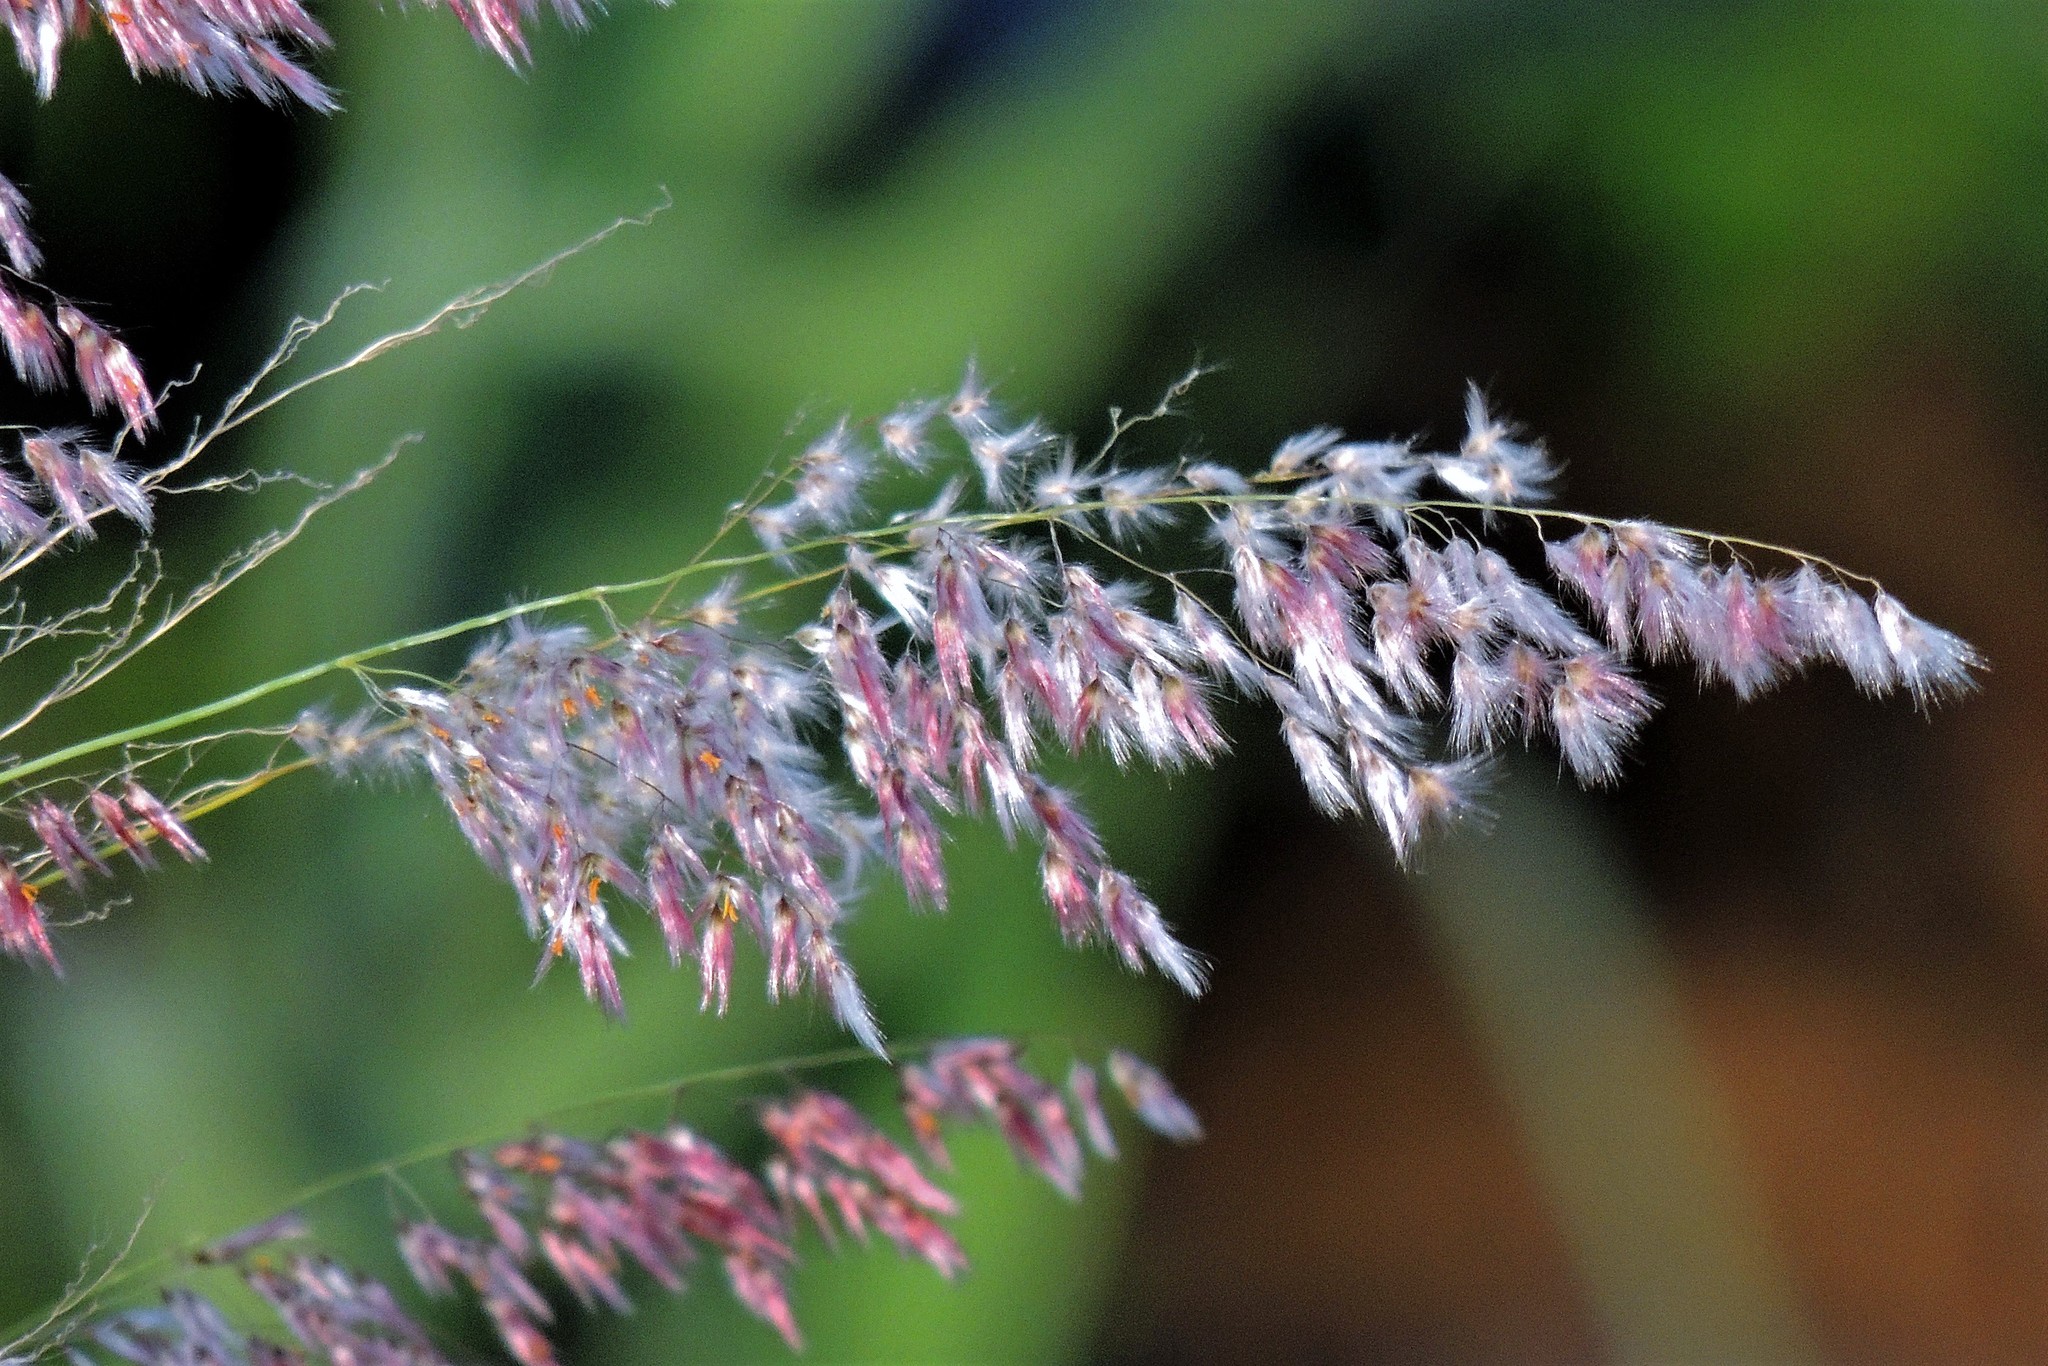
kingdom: Plantae
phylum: Tracheophyta
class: Liliopsida
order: Poales
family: Poaceae
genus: Melinis
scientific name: Melinis repens
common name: Rose natal grass
